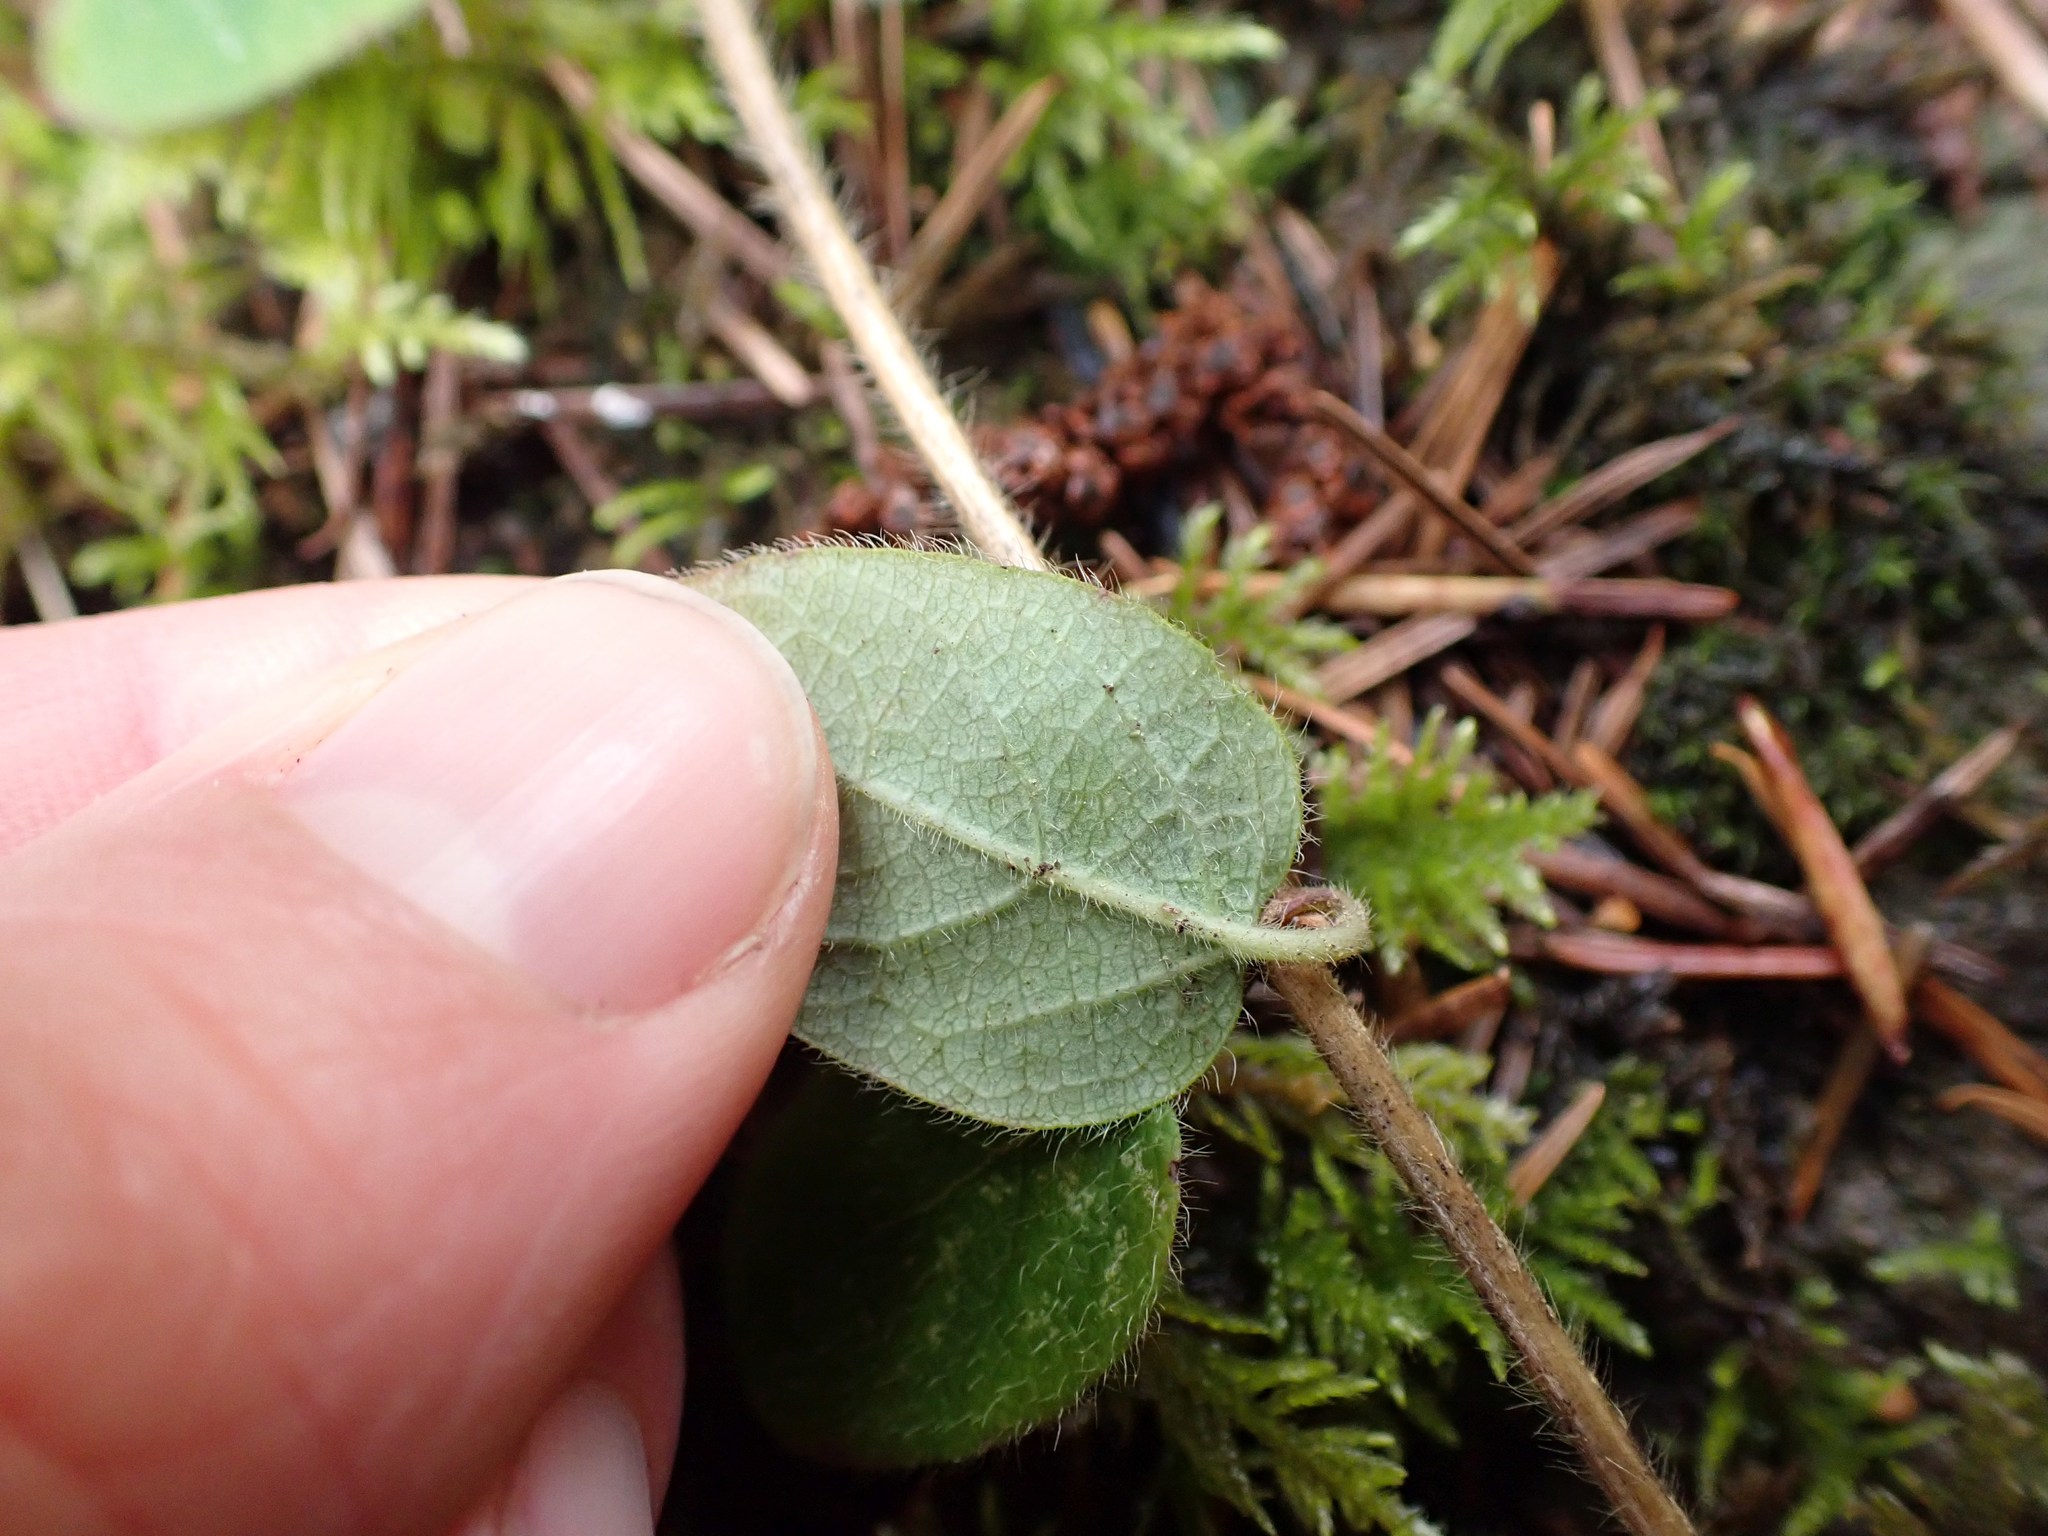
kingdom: Plantae
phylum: Tracheophyta
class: Magnoliopsida
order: Dipsacales
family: Caprifoliaceae
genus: Lonicera
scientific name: Lonicera hispidula
